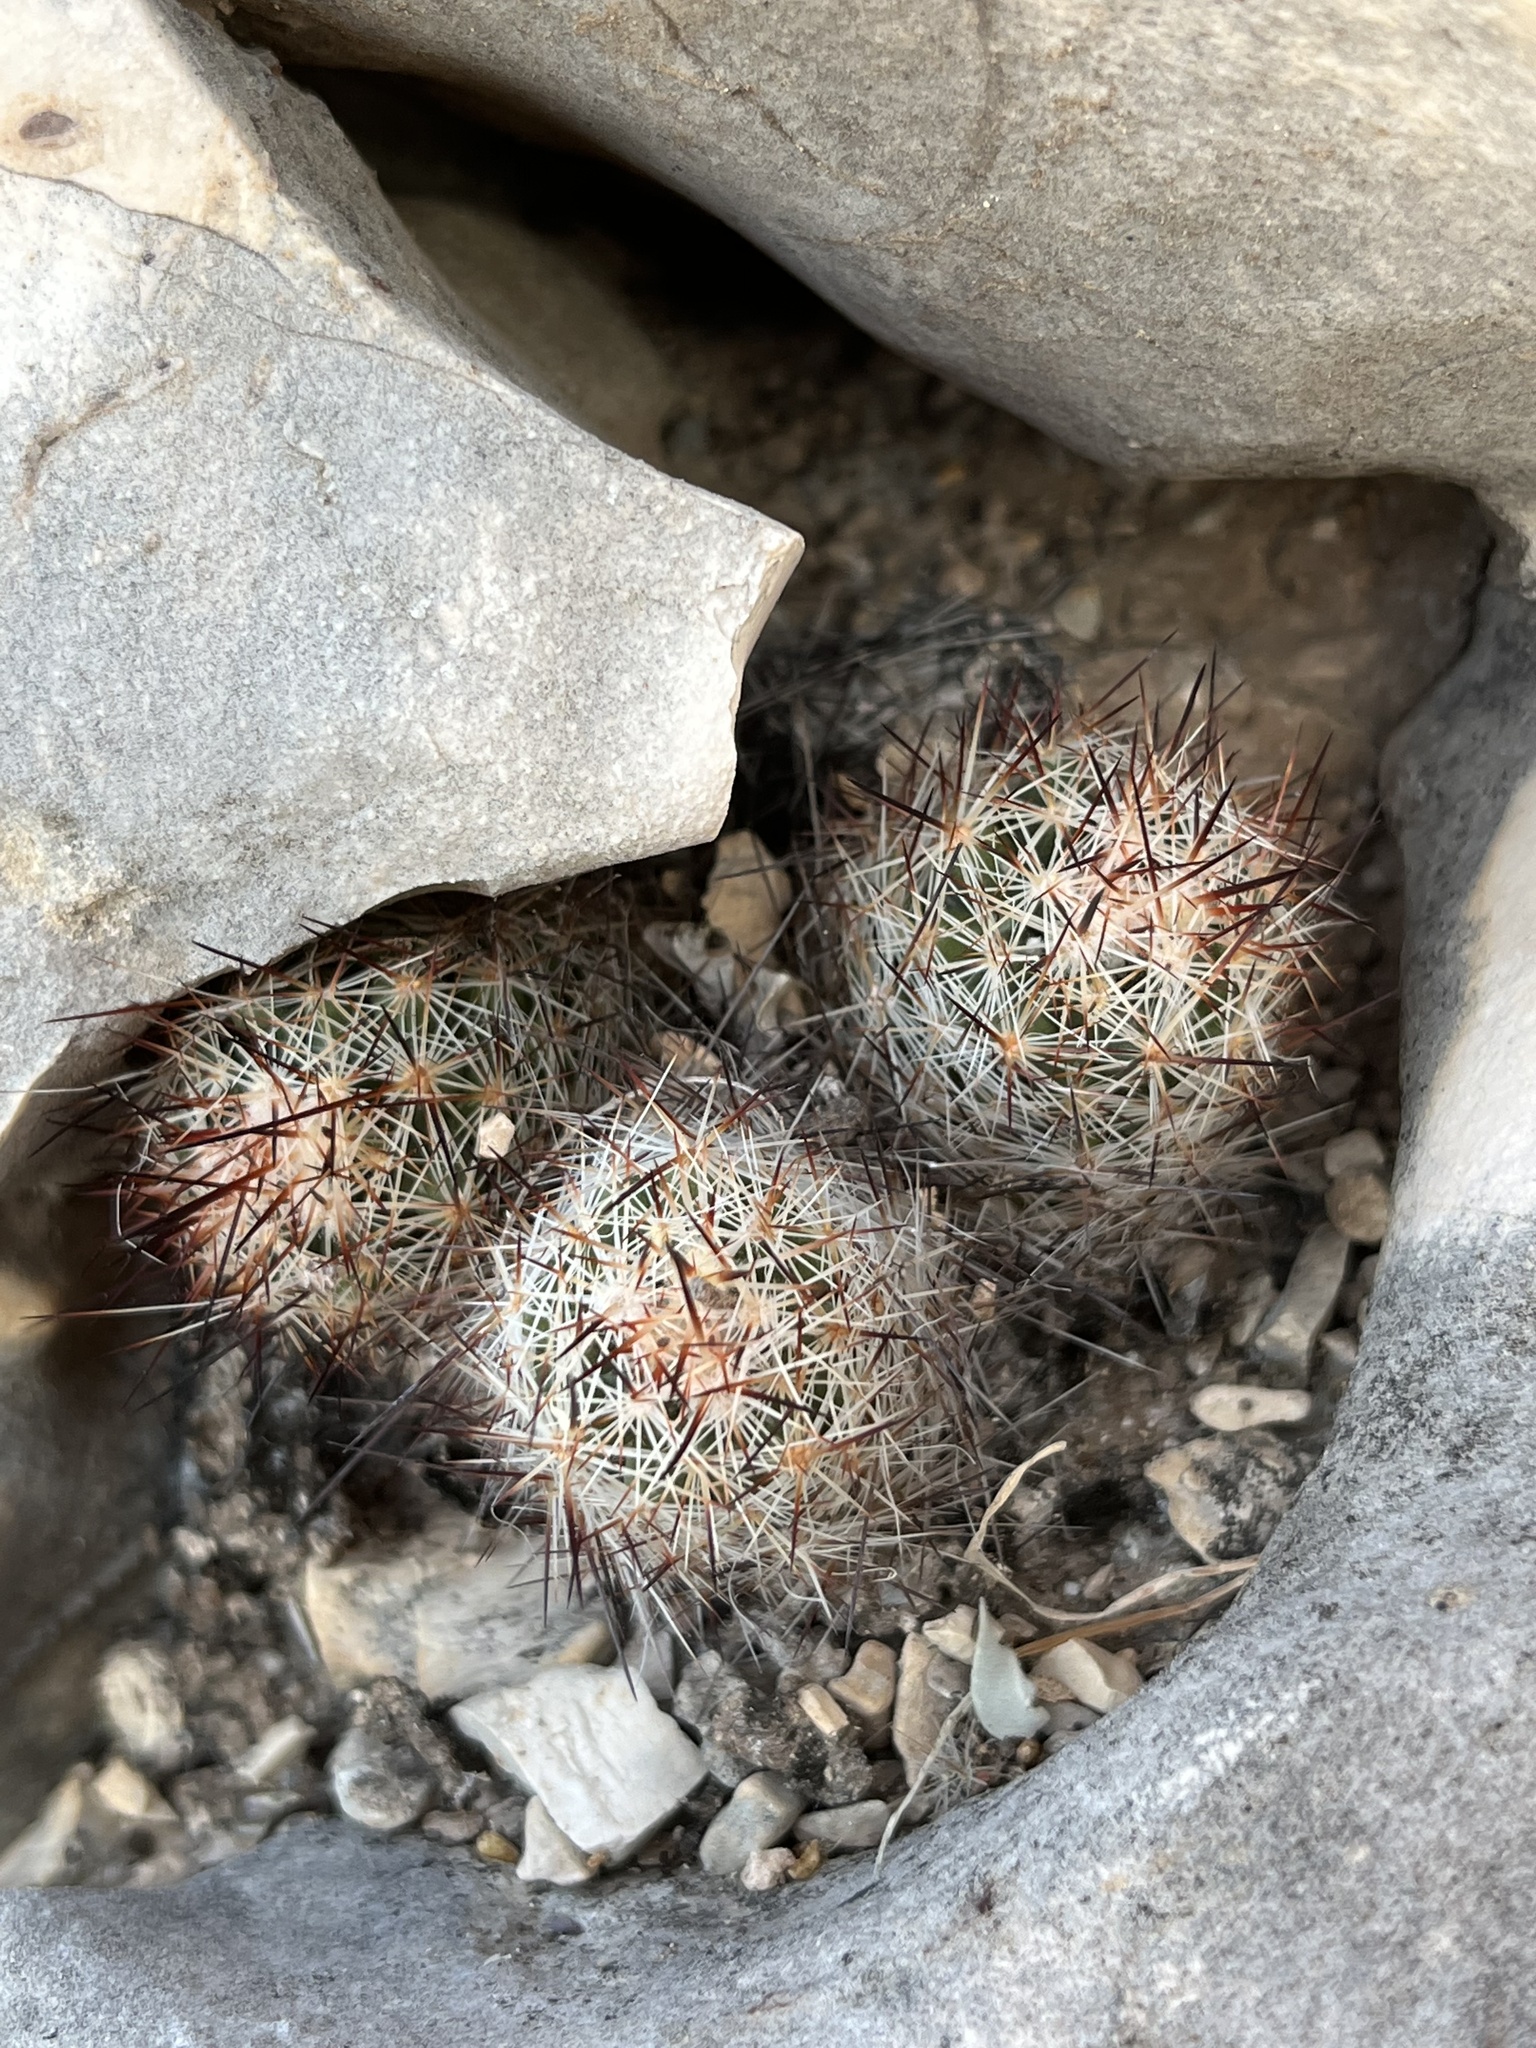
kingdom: Plantae
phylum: Tracheophyta
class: Magnoliopsida
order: Caryophyllales
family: Cactaceae
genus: Pelecyphora
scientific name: Pelecyphora emskoetteriana
